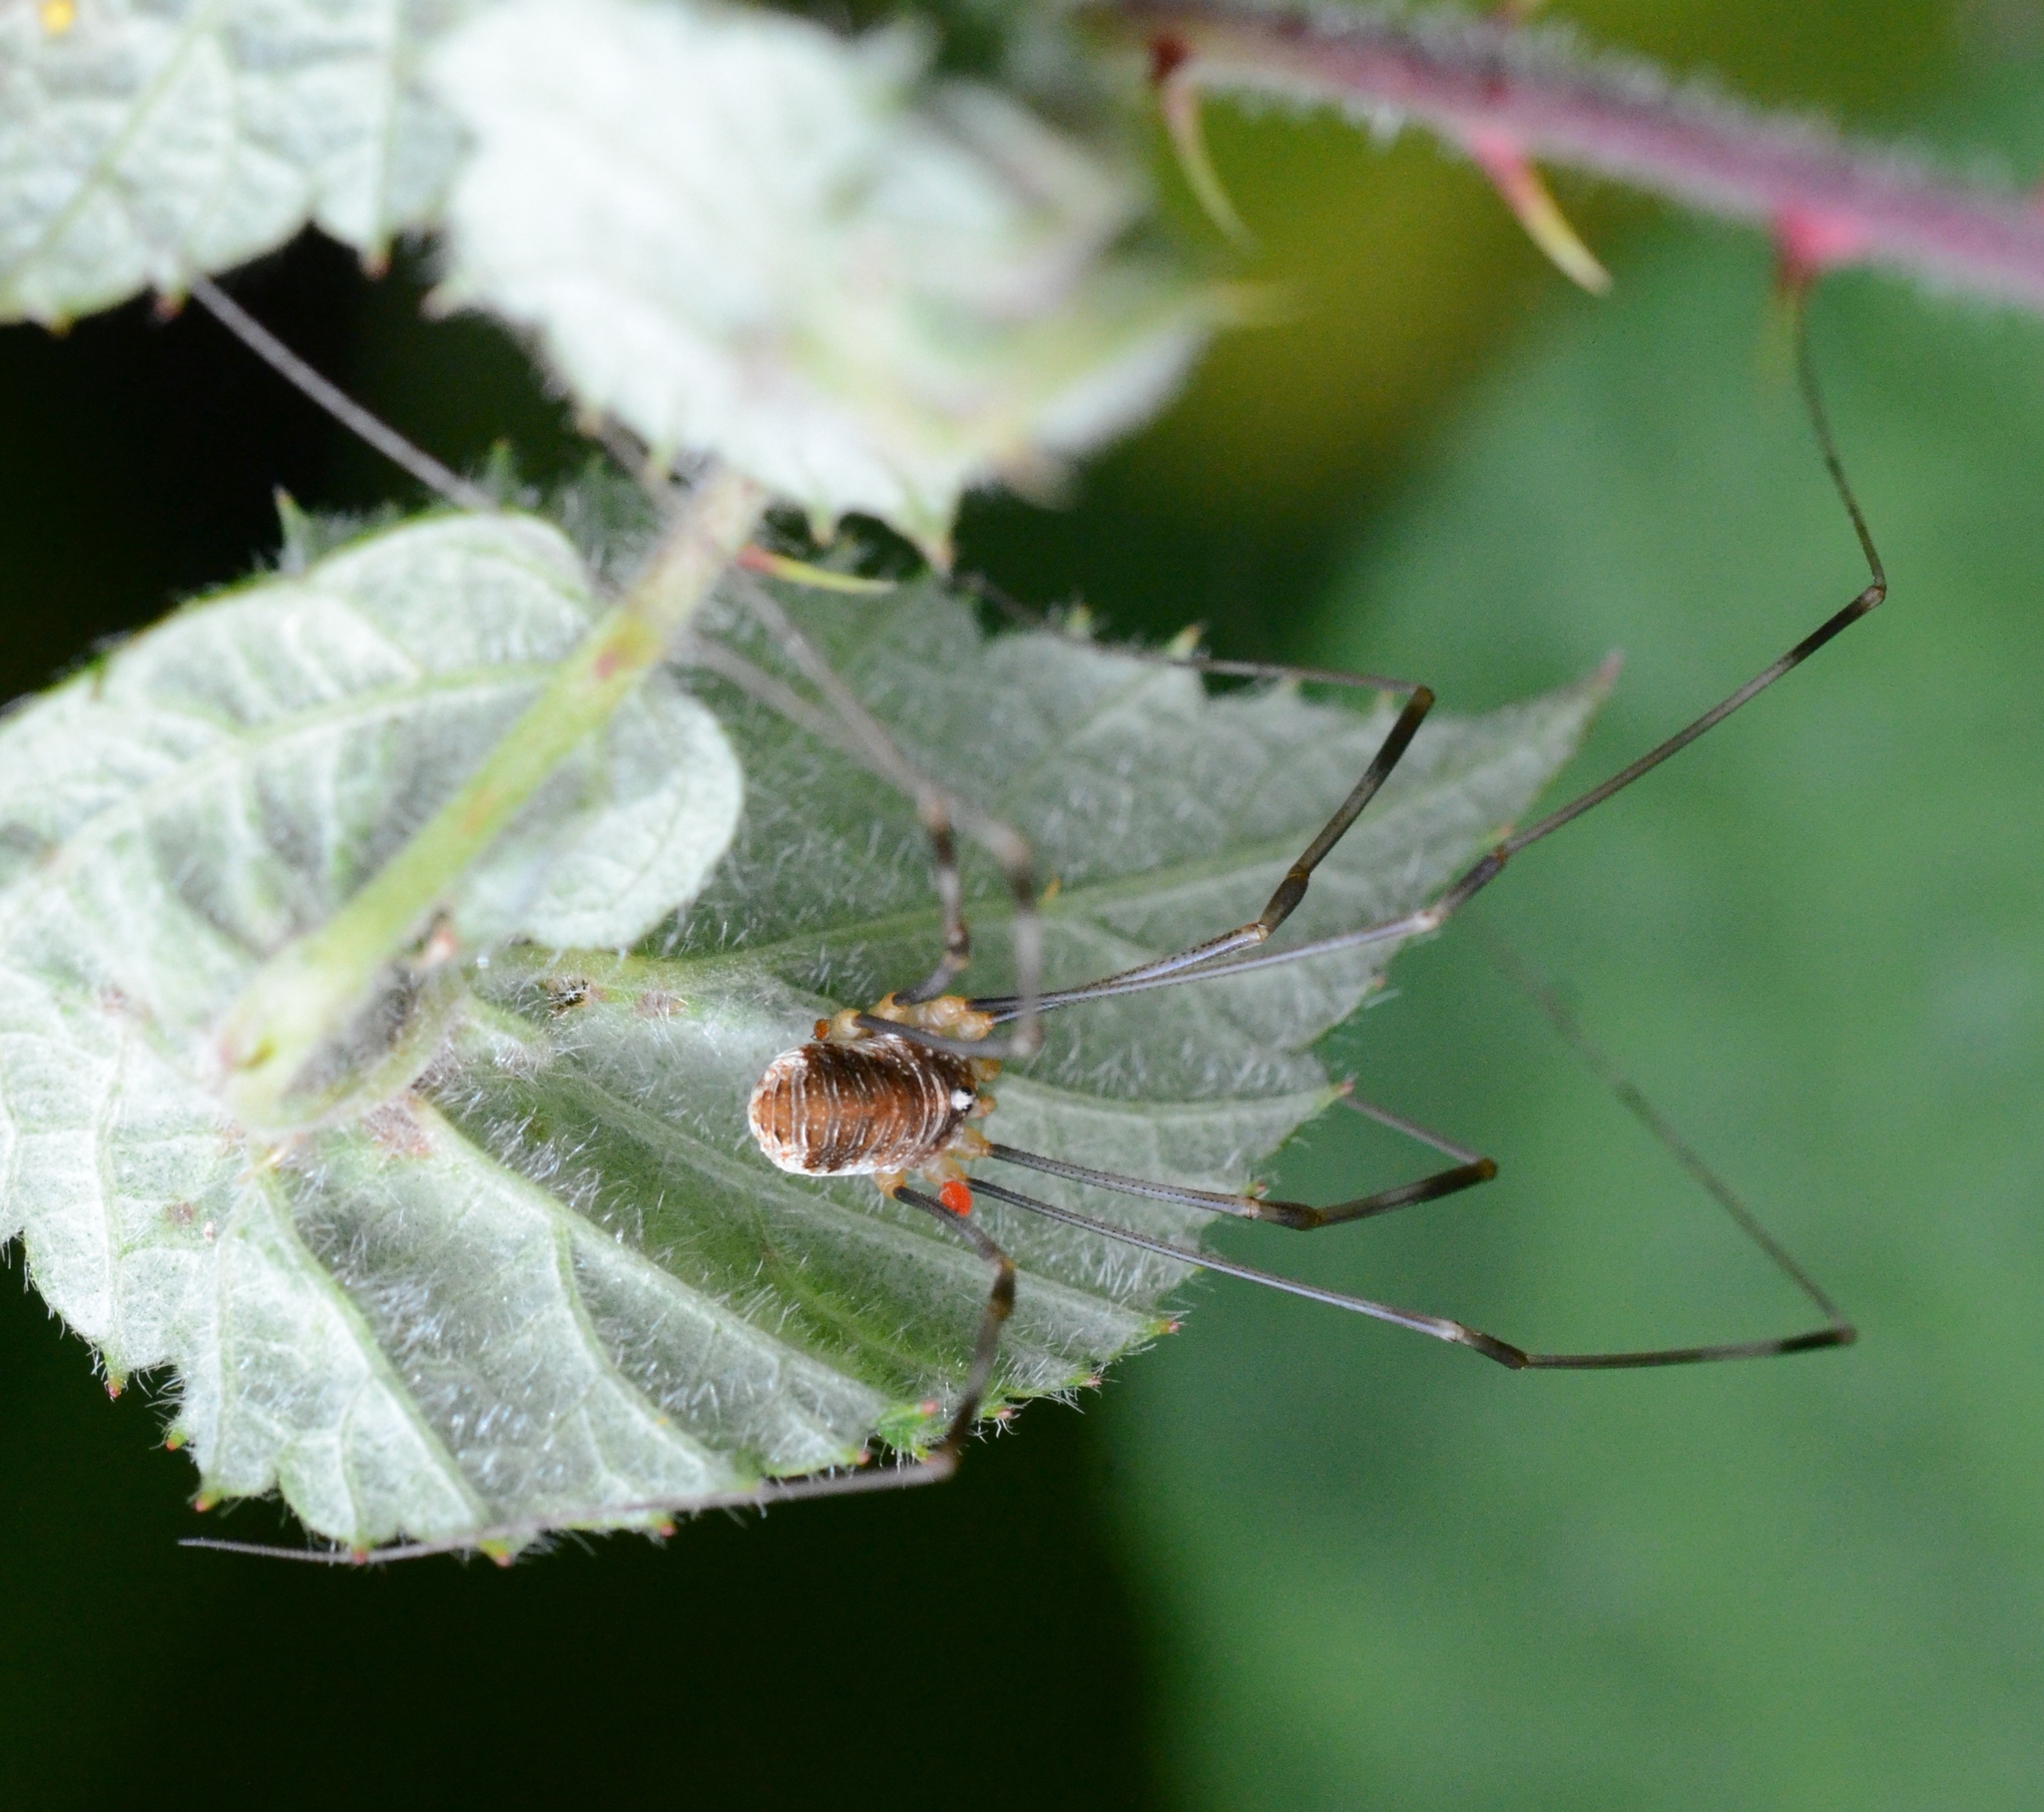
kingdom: Animalia
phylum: Arthropoda
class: Arachnida
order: Opiliones
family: Phalangiidae
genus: Opilio
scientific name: Opilio canestrinii
